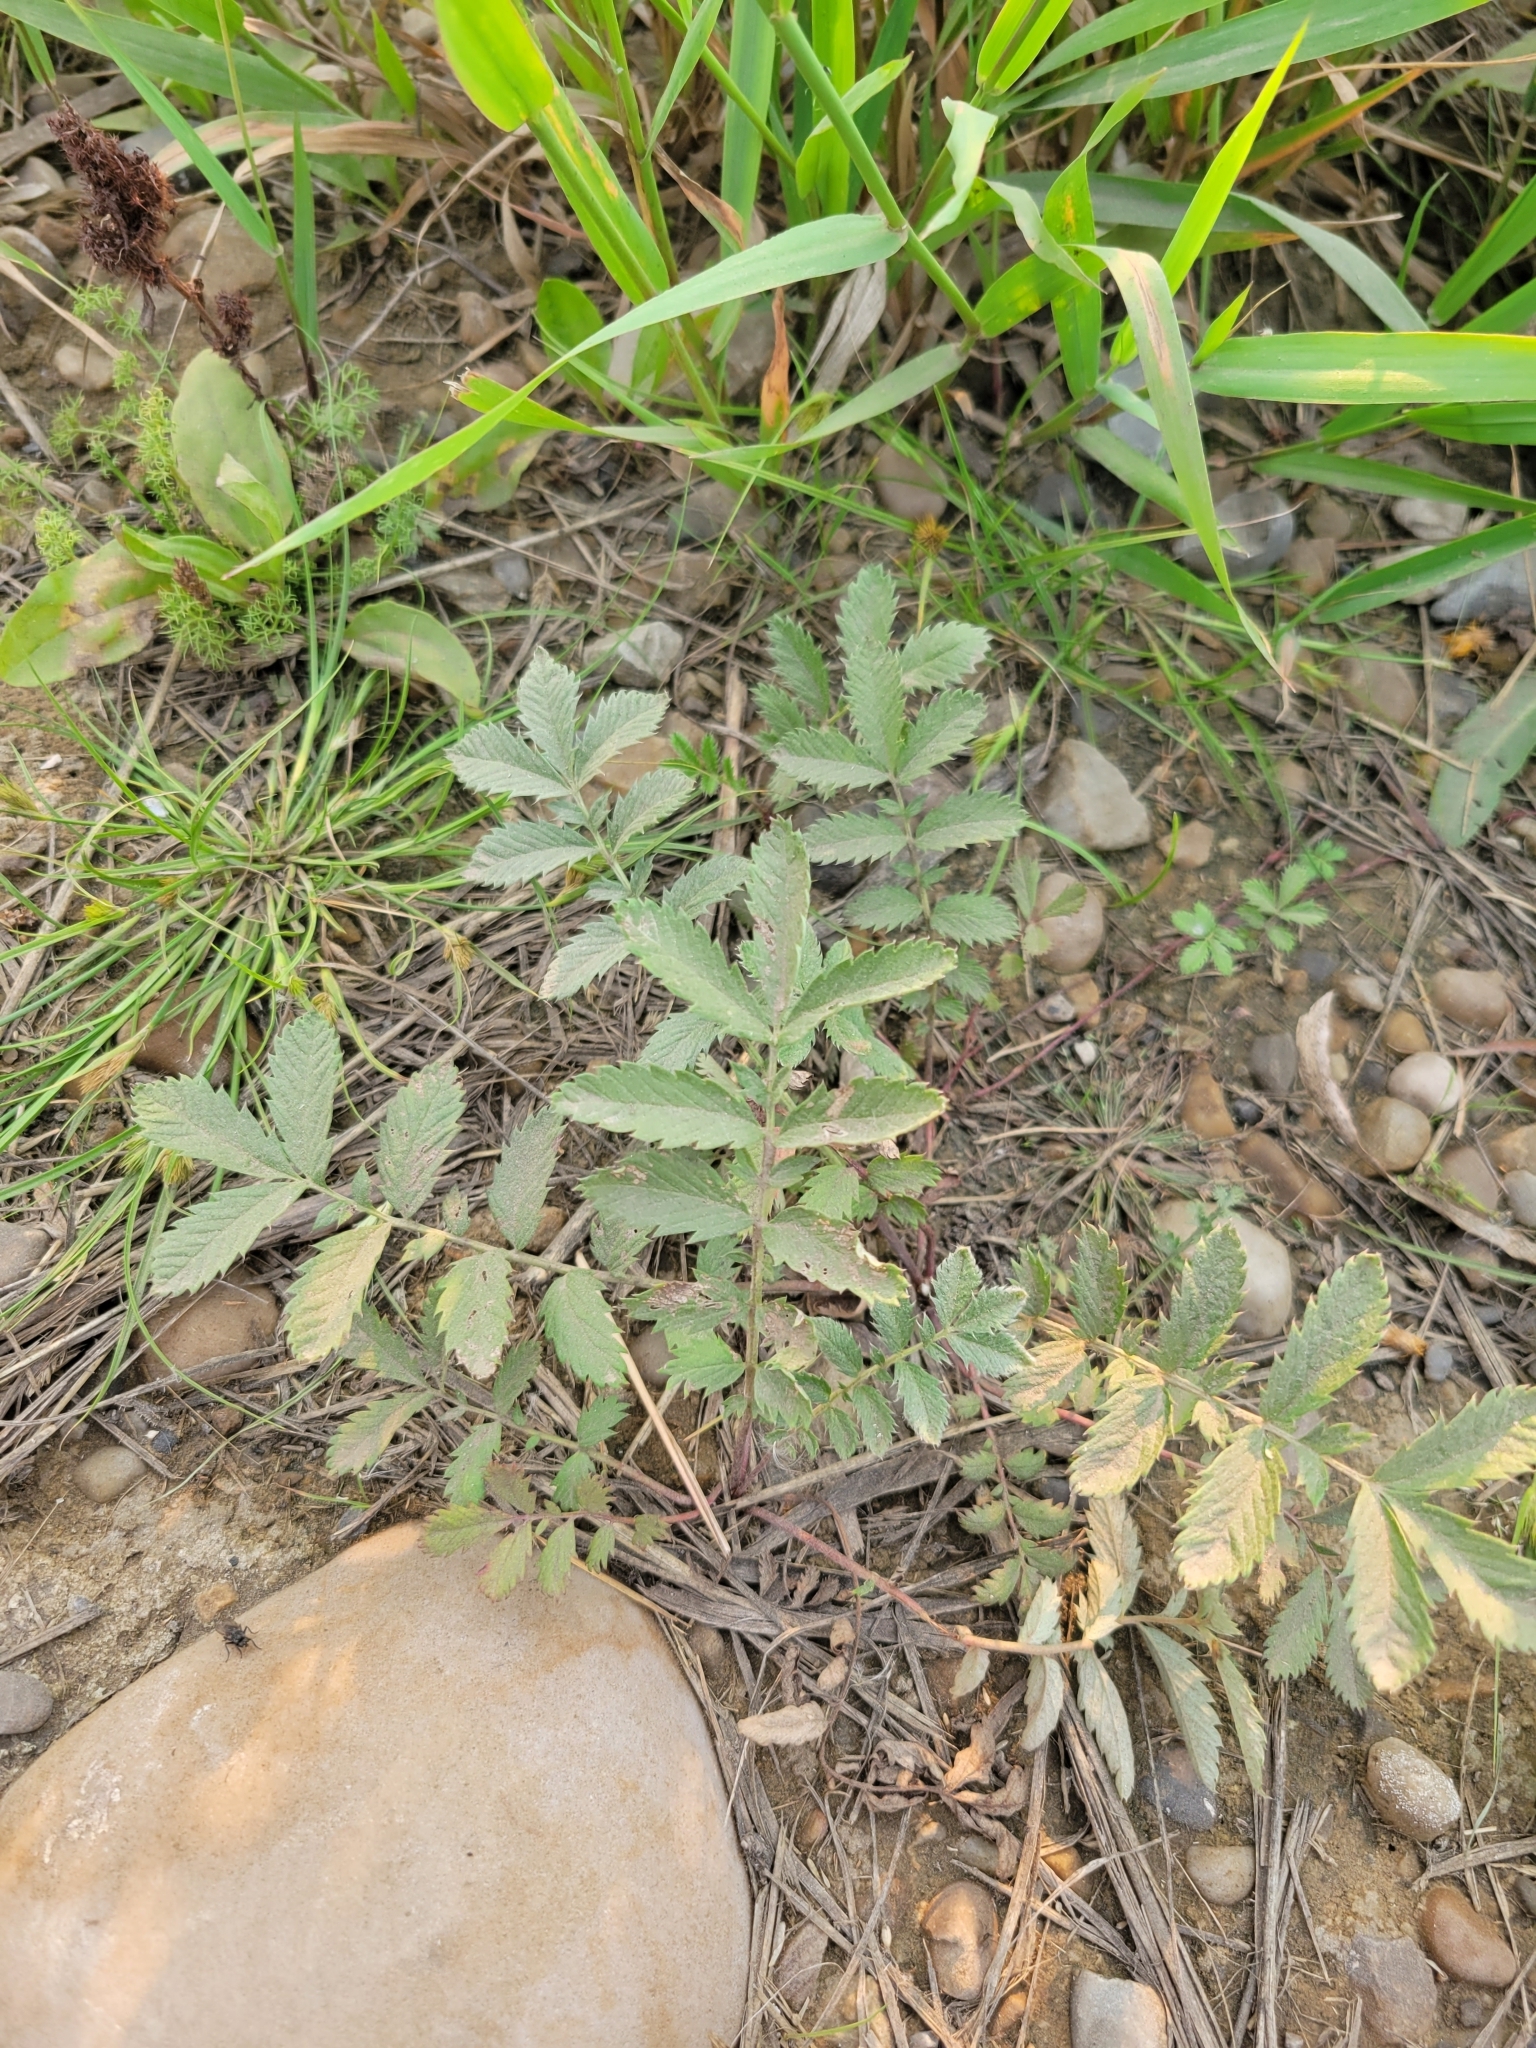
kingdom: Plantae
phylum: Tracheophyta
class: Magnoliopsida
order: Rosales
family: Rosaceae
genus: Argentina
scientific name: Argentina anserina
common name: Common silverweed
